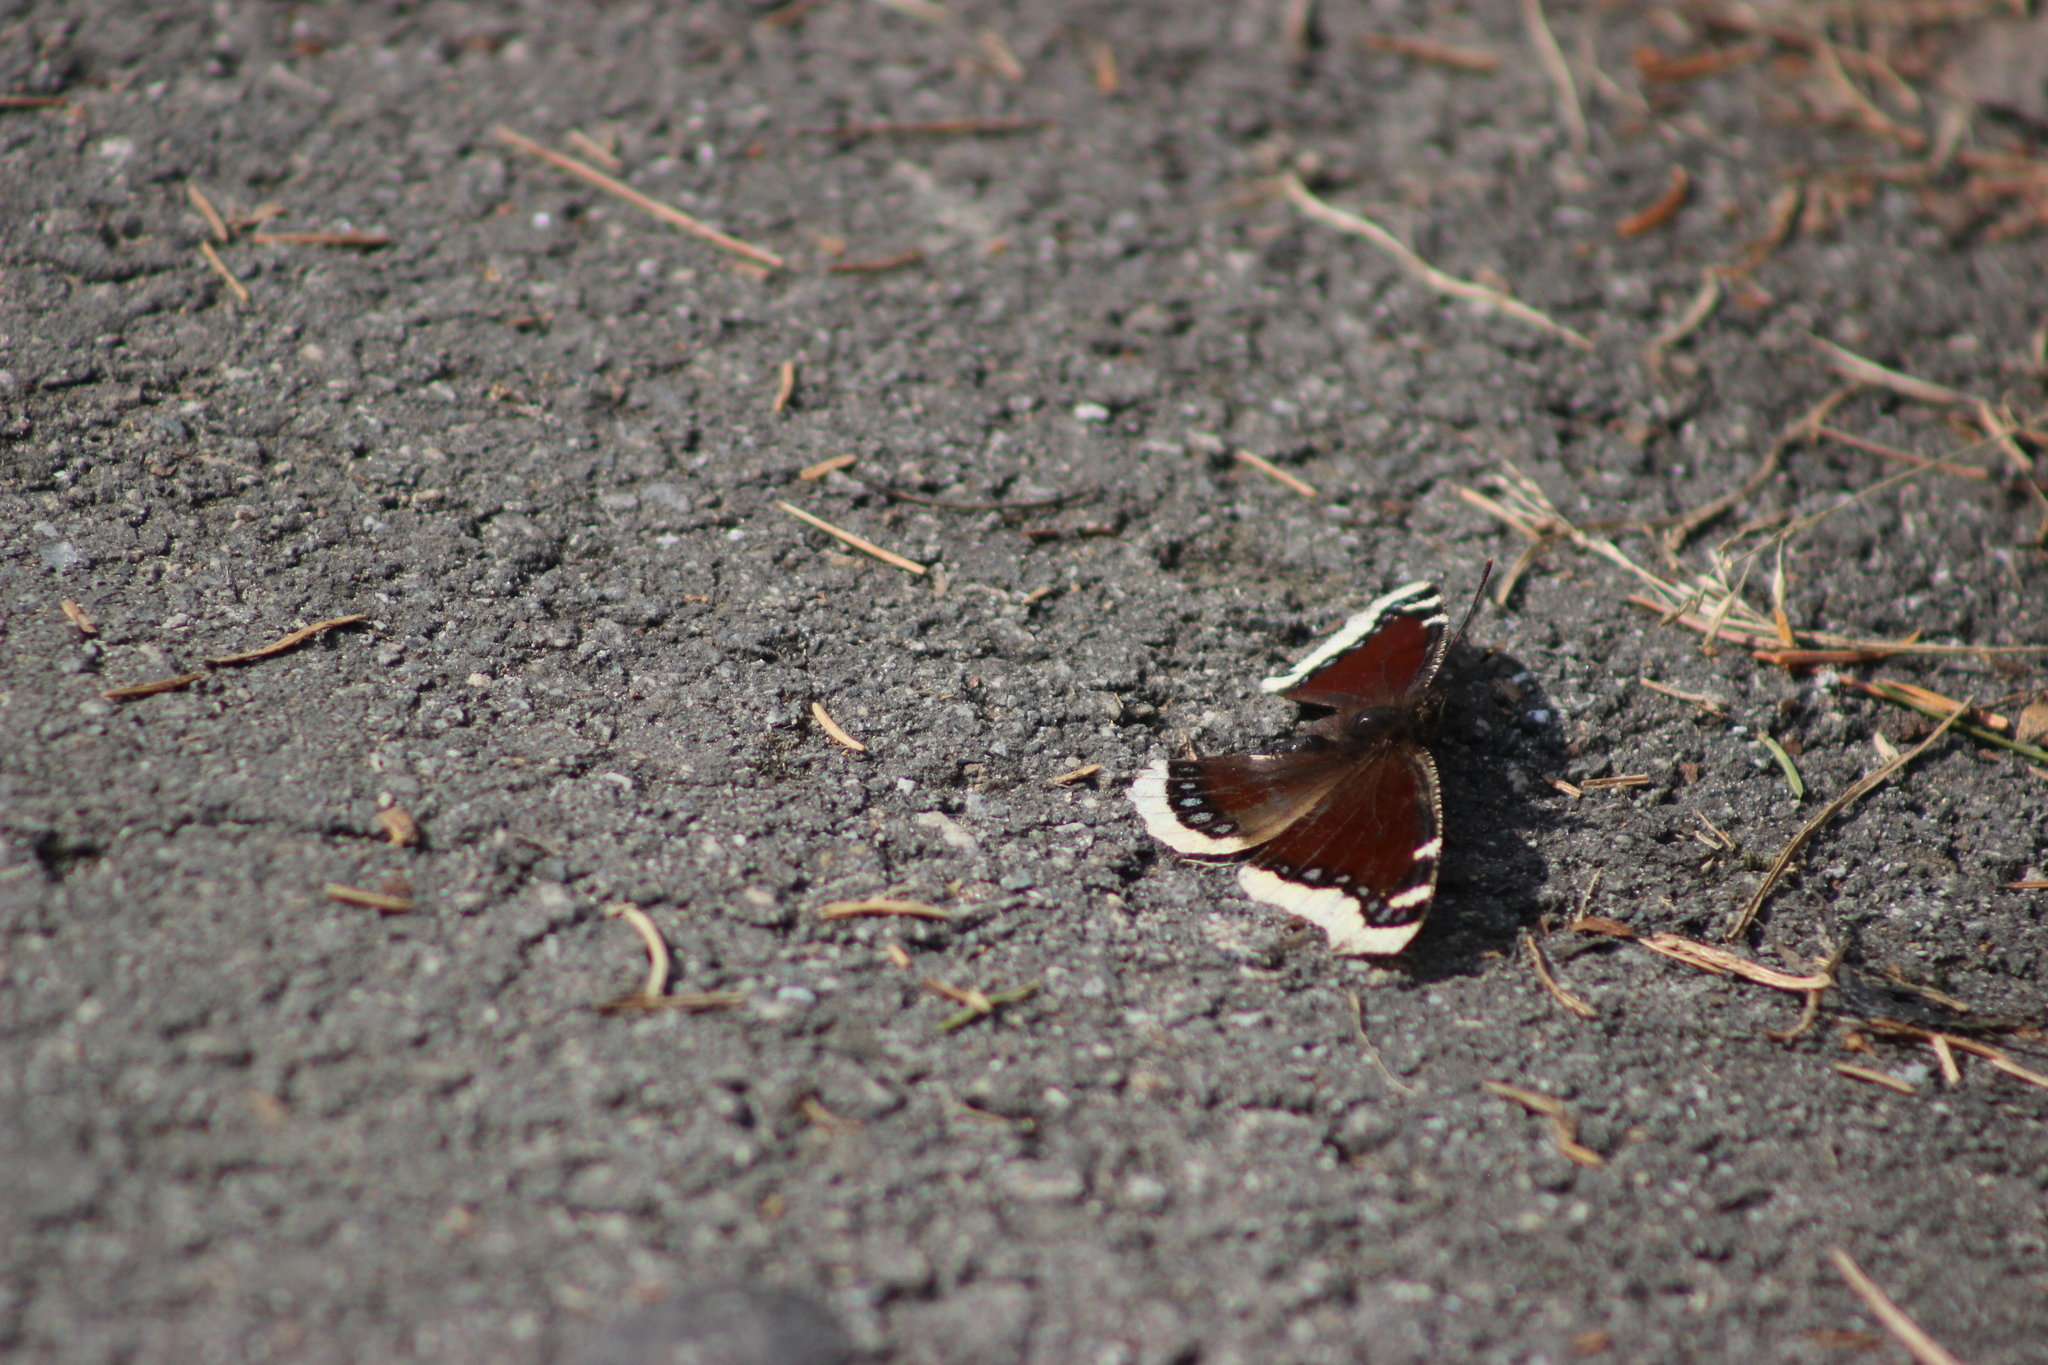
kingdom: Animalia
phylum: Arthropoda
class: Insecta
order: Lepidoptera
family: Nymphalidae
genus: Nymphalis
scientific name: Nymphalis antiopa
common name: Camberwell beauty
